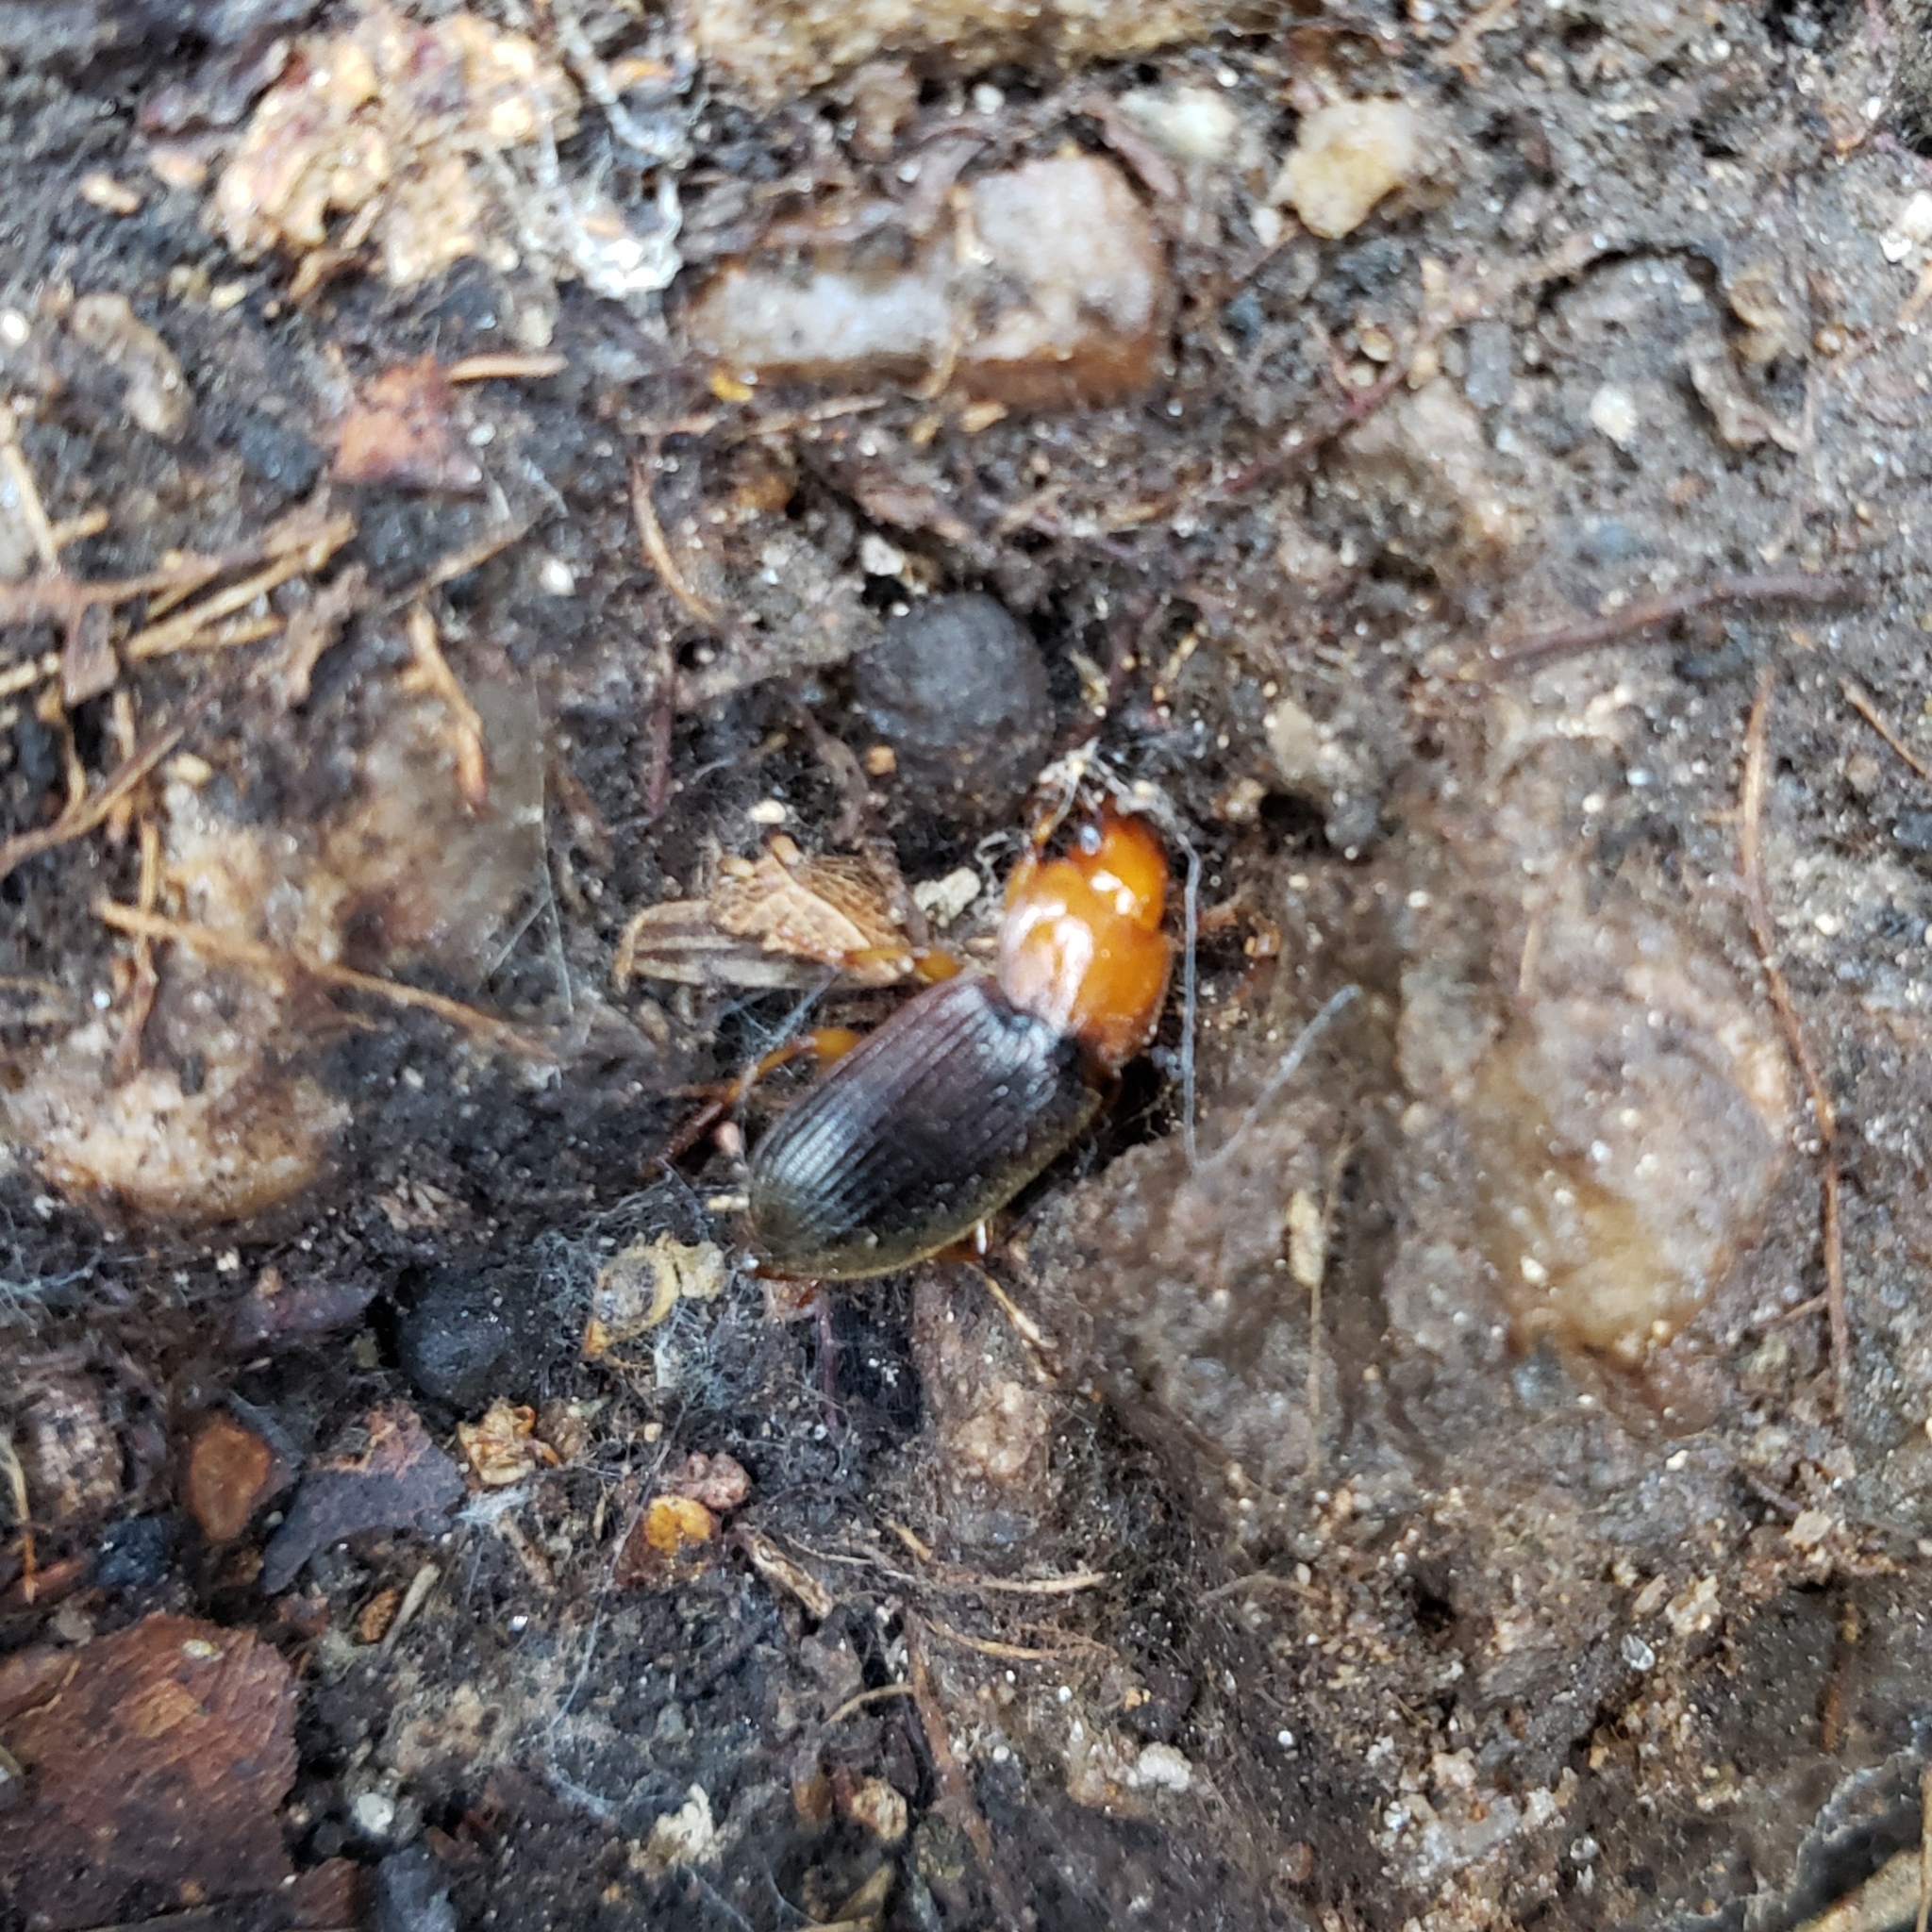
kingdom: Animalia
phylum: Arthropoda
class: Insecta
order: Coleoptera
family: Carabidae
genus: Amphasia
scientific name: Amphasia interstitialis
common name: Red-headed ground beetle
